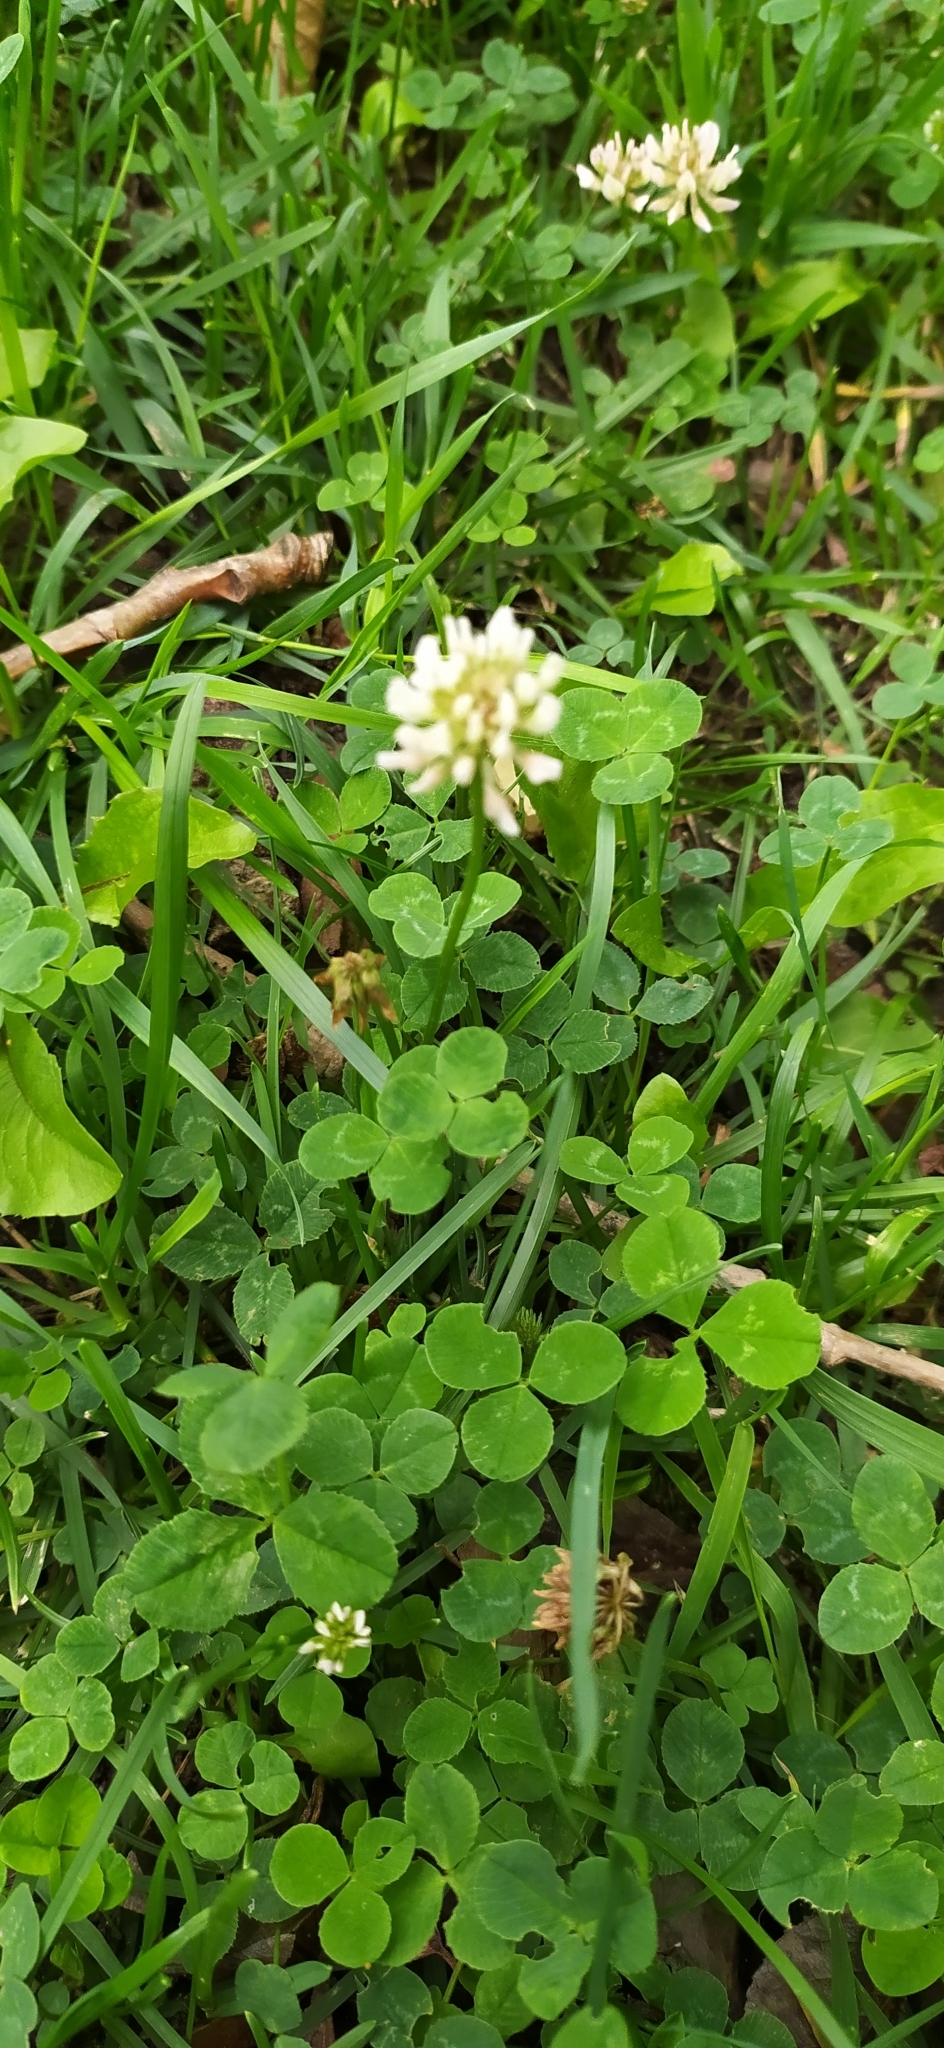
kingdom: Plantae
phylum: Tracheophyta
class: Magnoliopsida
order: Fabales
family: Fabaceae
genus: Trifolium
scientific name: Trifolium repens
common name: White clover
